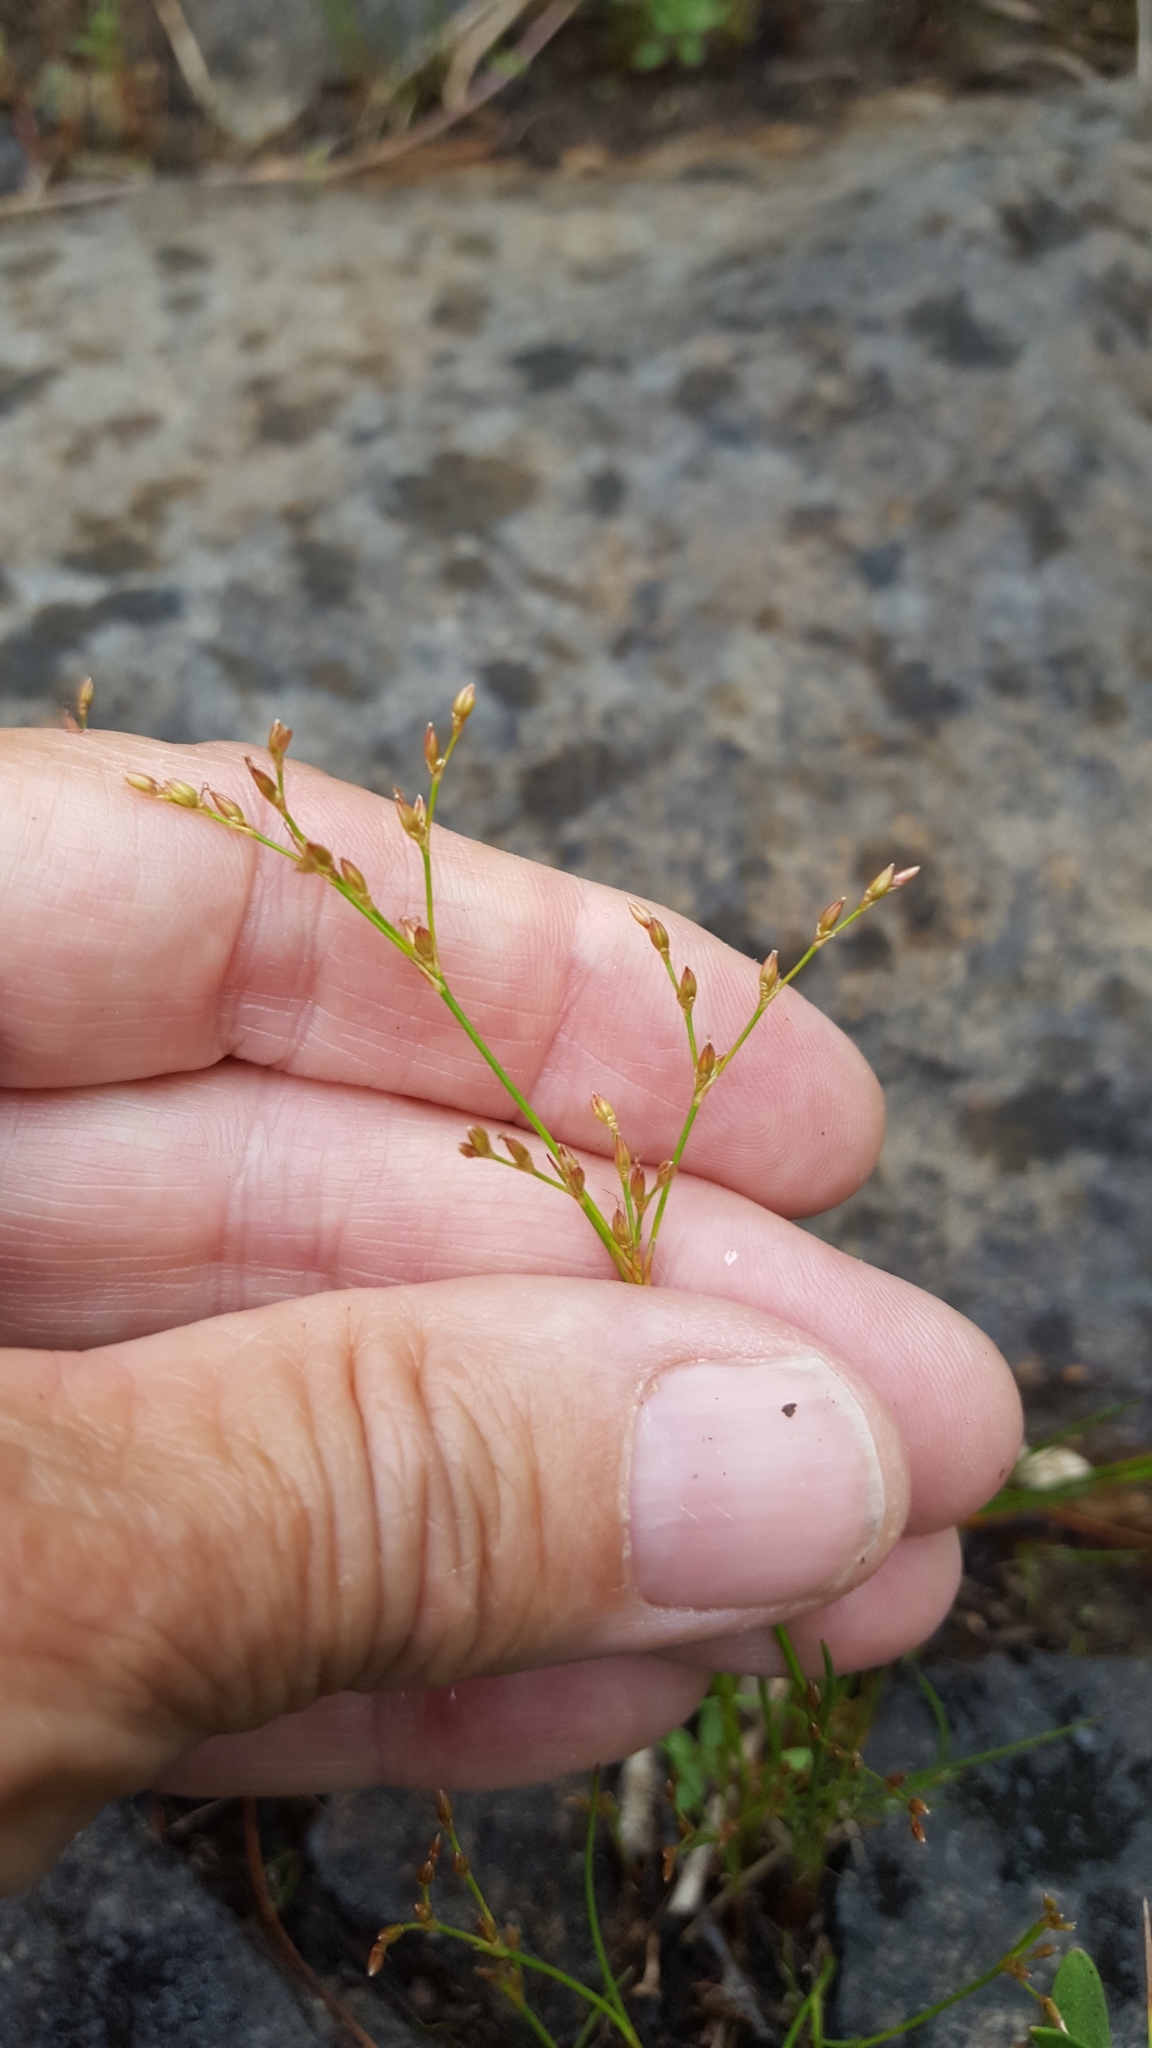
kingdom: Plantae
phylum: Tracheophyta
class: Liliopsida
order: Poales
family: Juncaceae
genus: Juncus
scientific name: Juncus pelocarpus
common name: Brown-fruited rush
